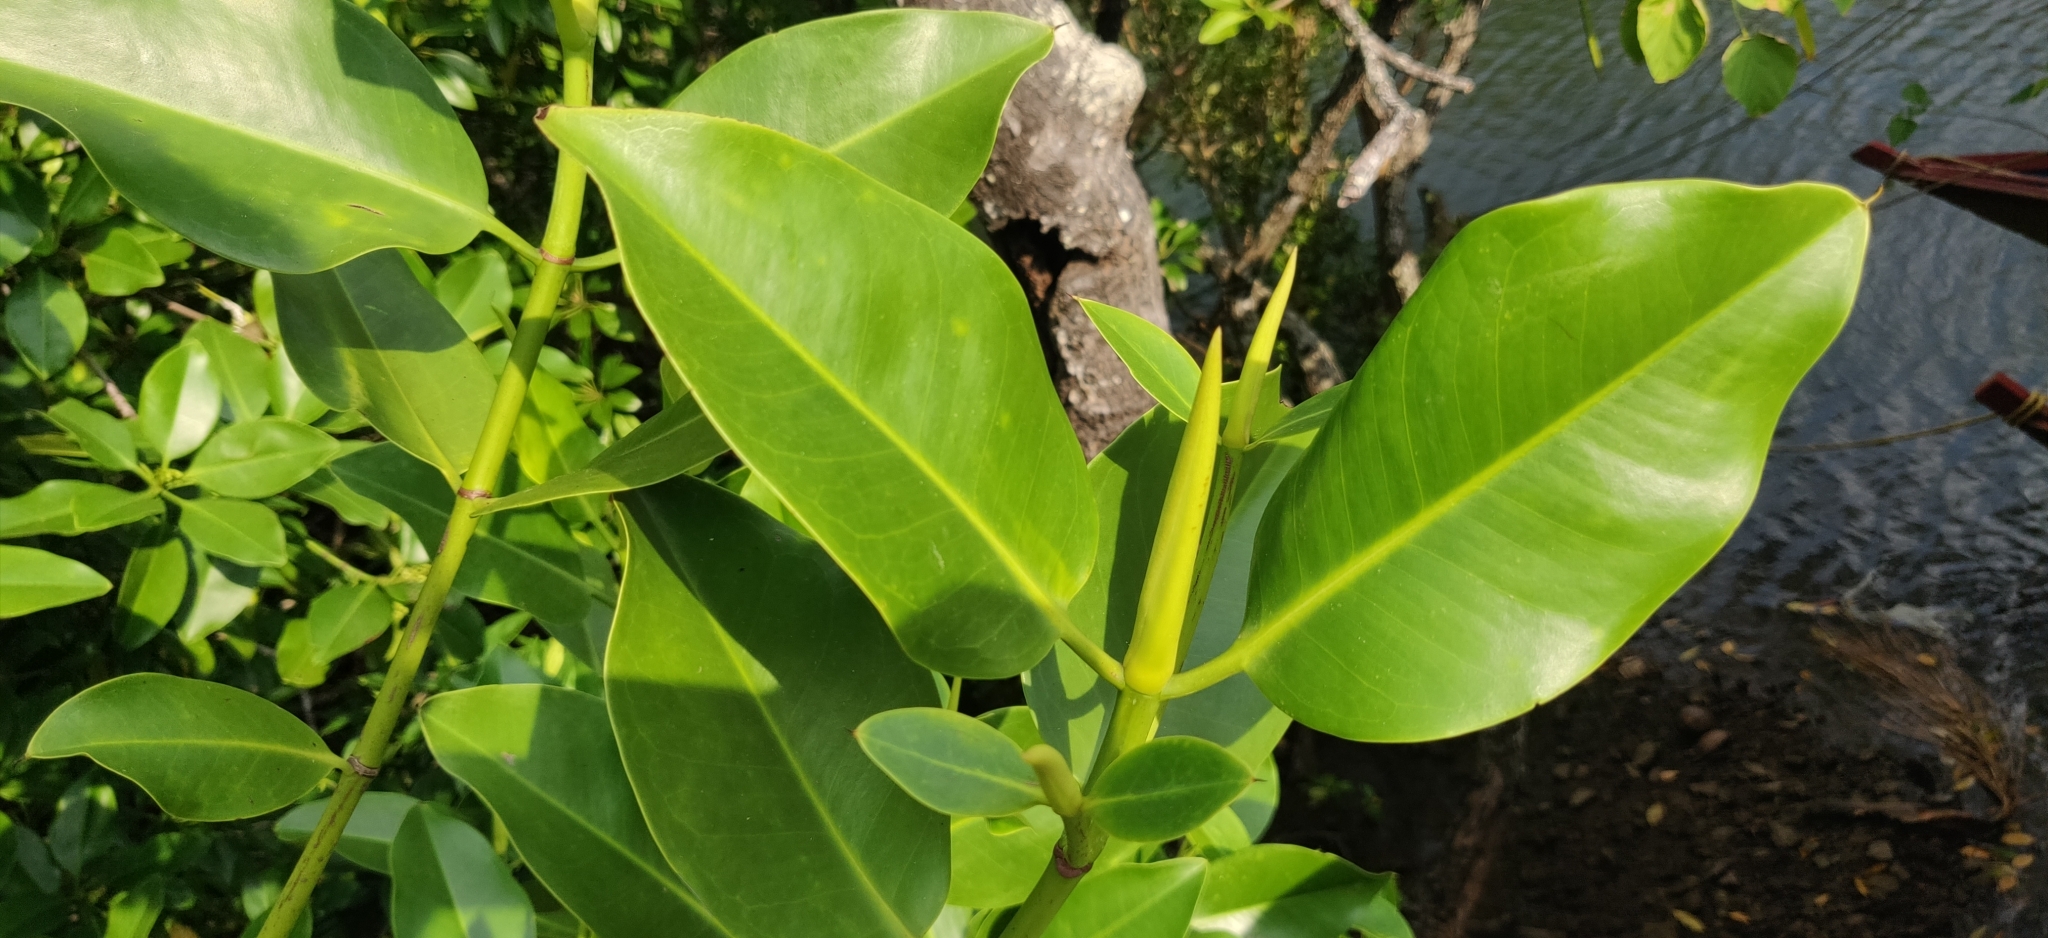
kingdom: Plantae
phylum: Tracheophyta
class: Magnoliopsida
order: Malpighiales
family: Rhizophoraceae
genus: Bruguiera
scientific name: Bruguiera gymnorhiza
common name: Oriental mangrove
